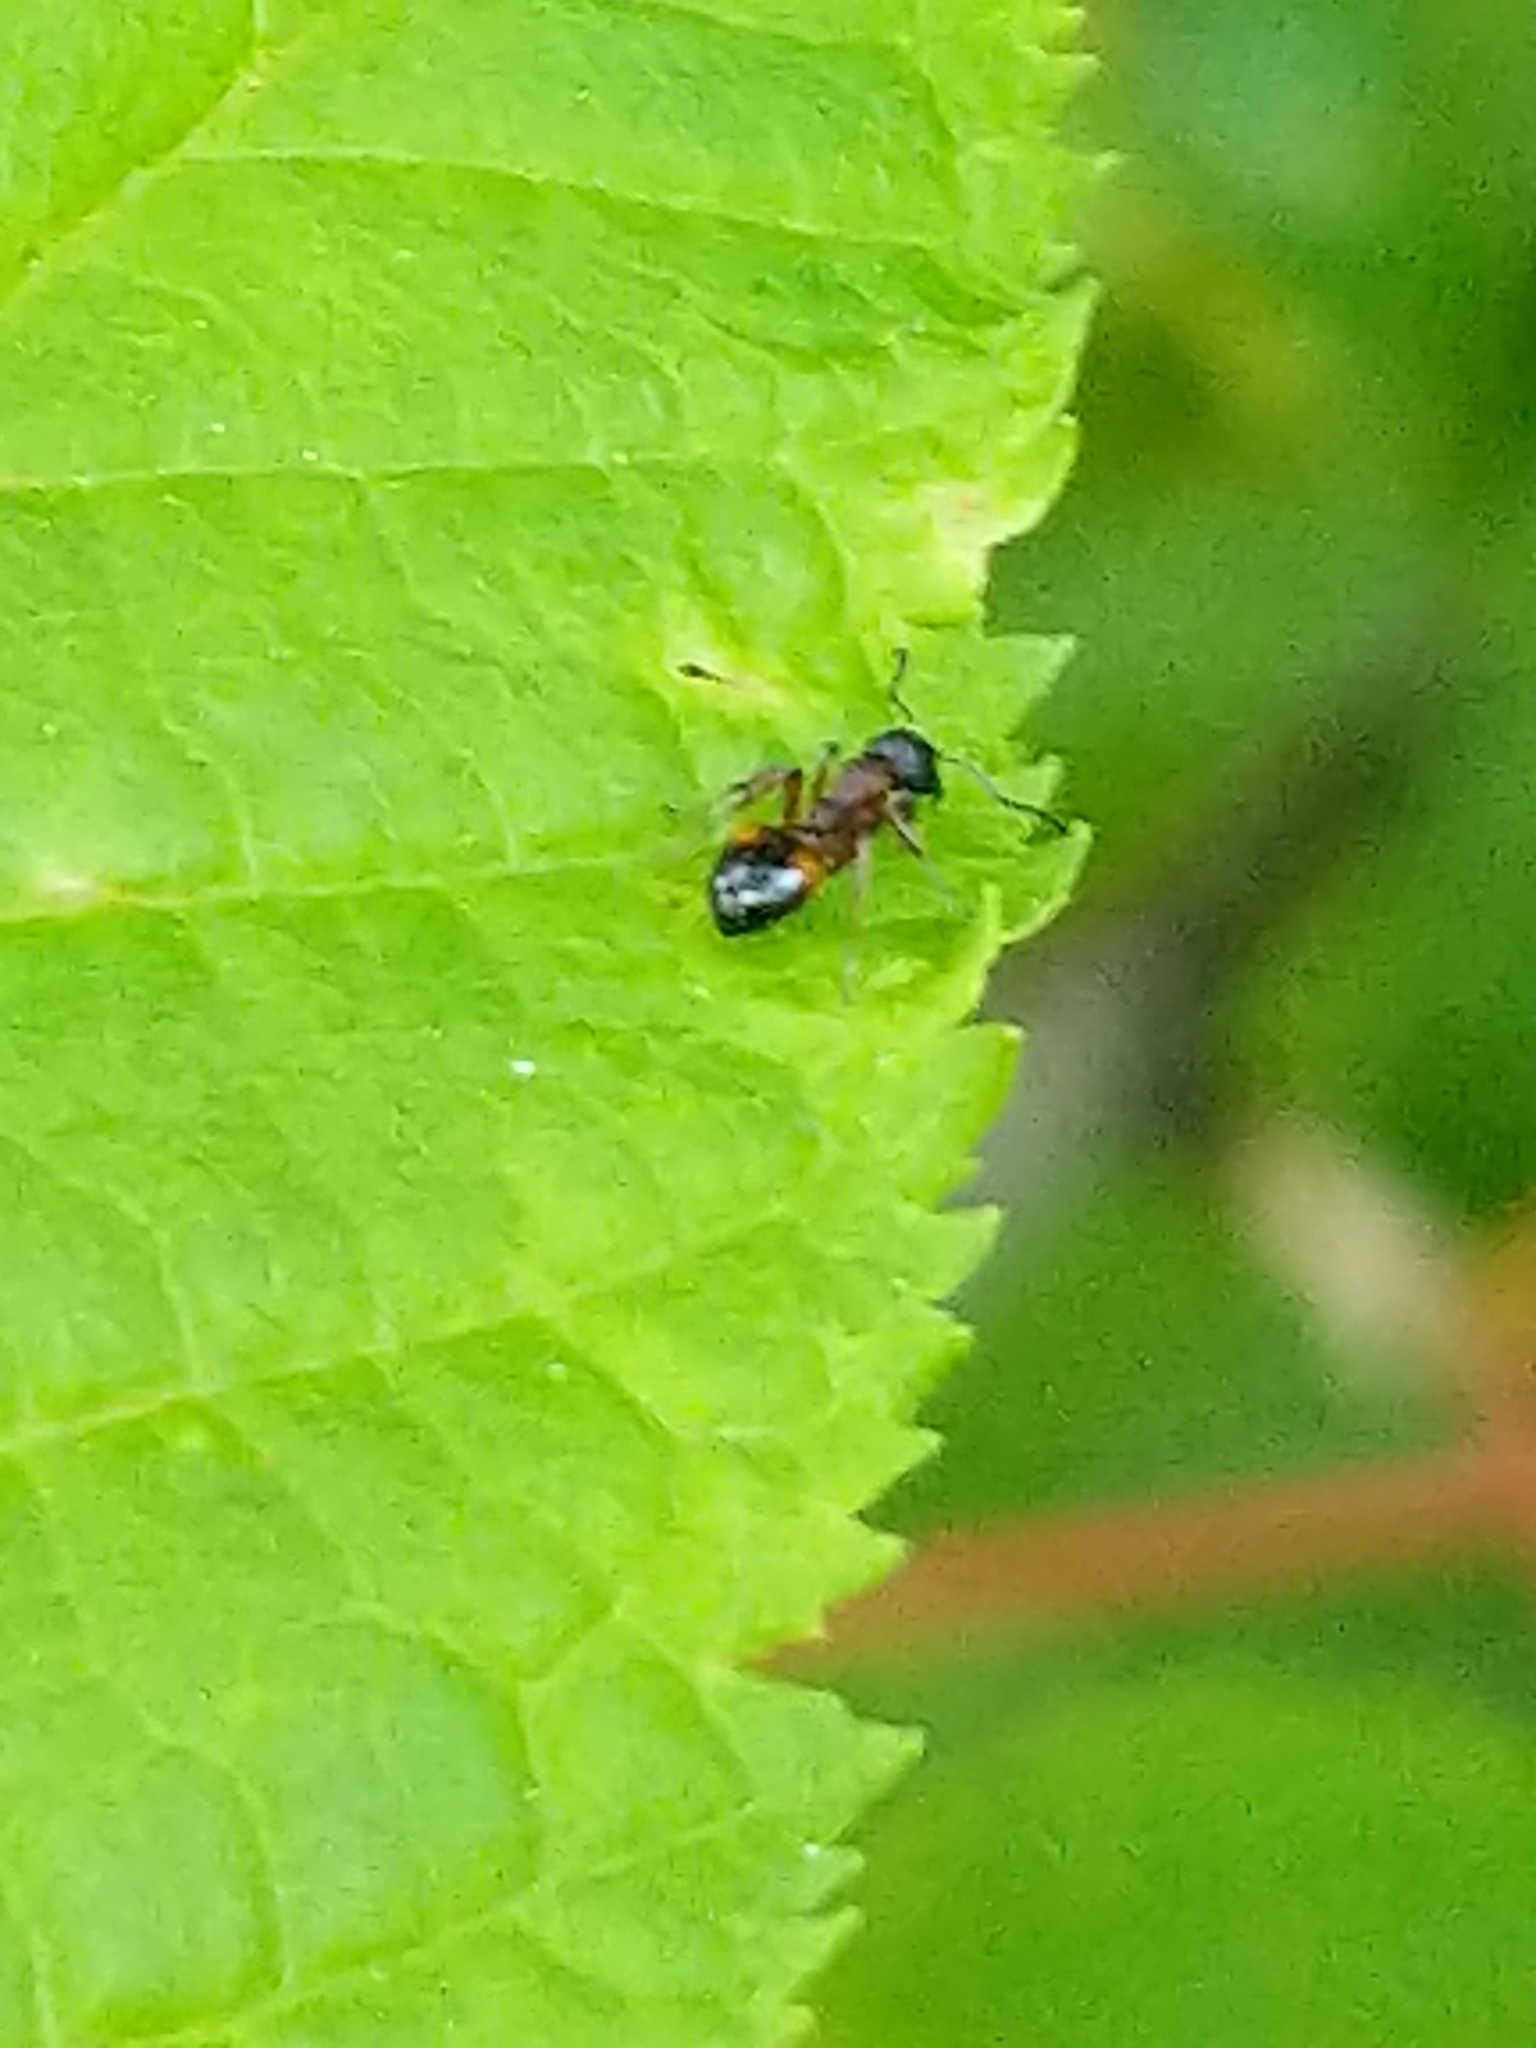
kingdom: Animalia
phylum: Arthropoda
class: Insecta
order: Hymenoptera
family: Formicidae
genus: Dolichoderus
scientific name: Dolichoderus plagiatus
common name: Mottled dolichoderus
